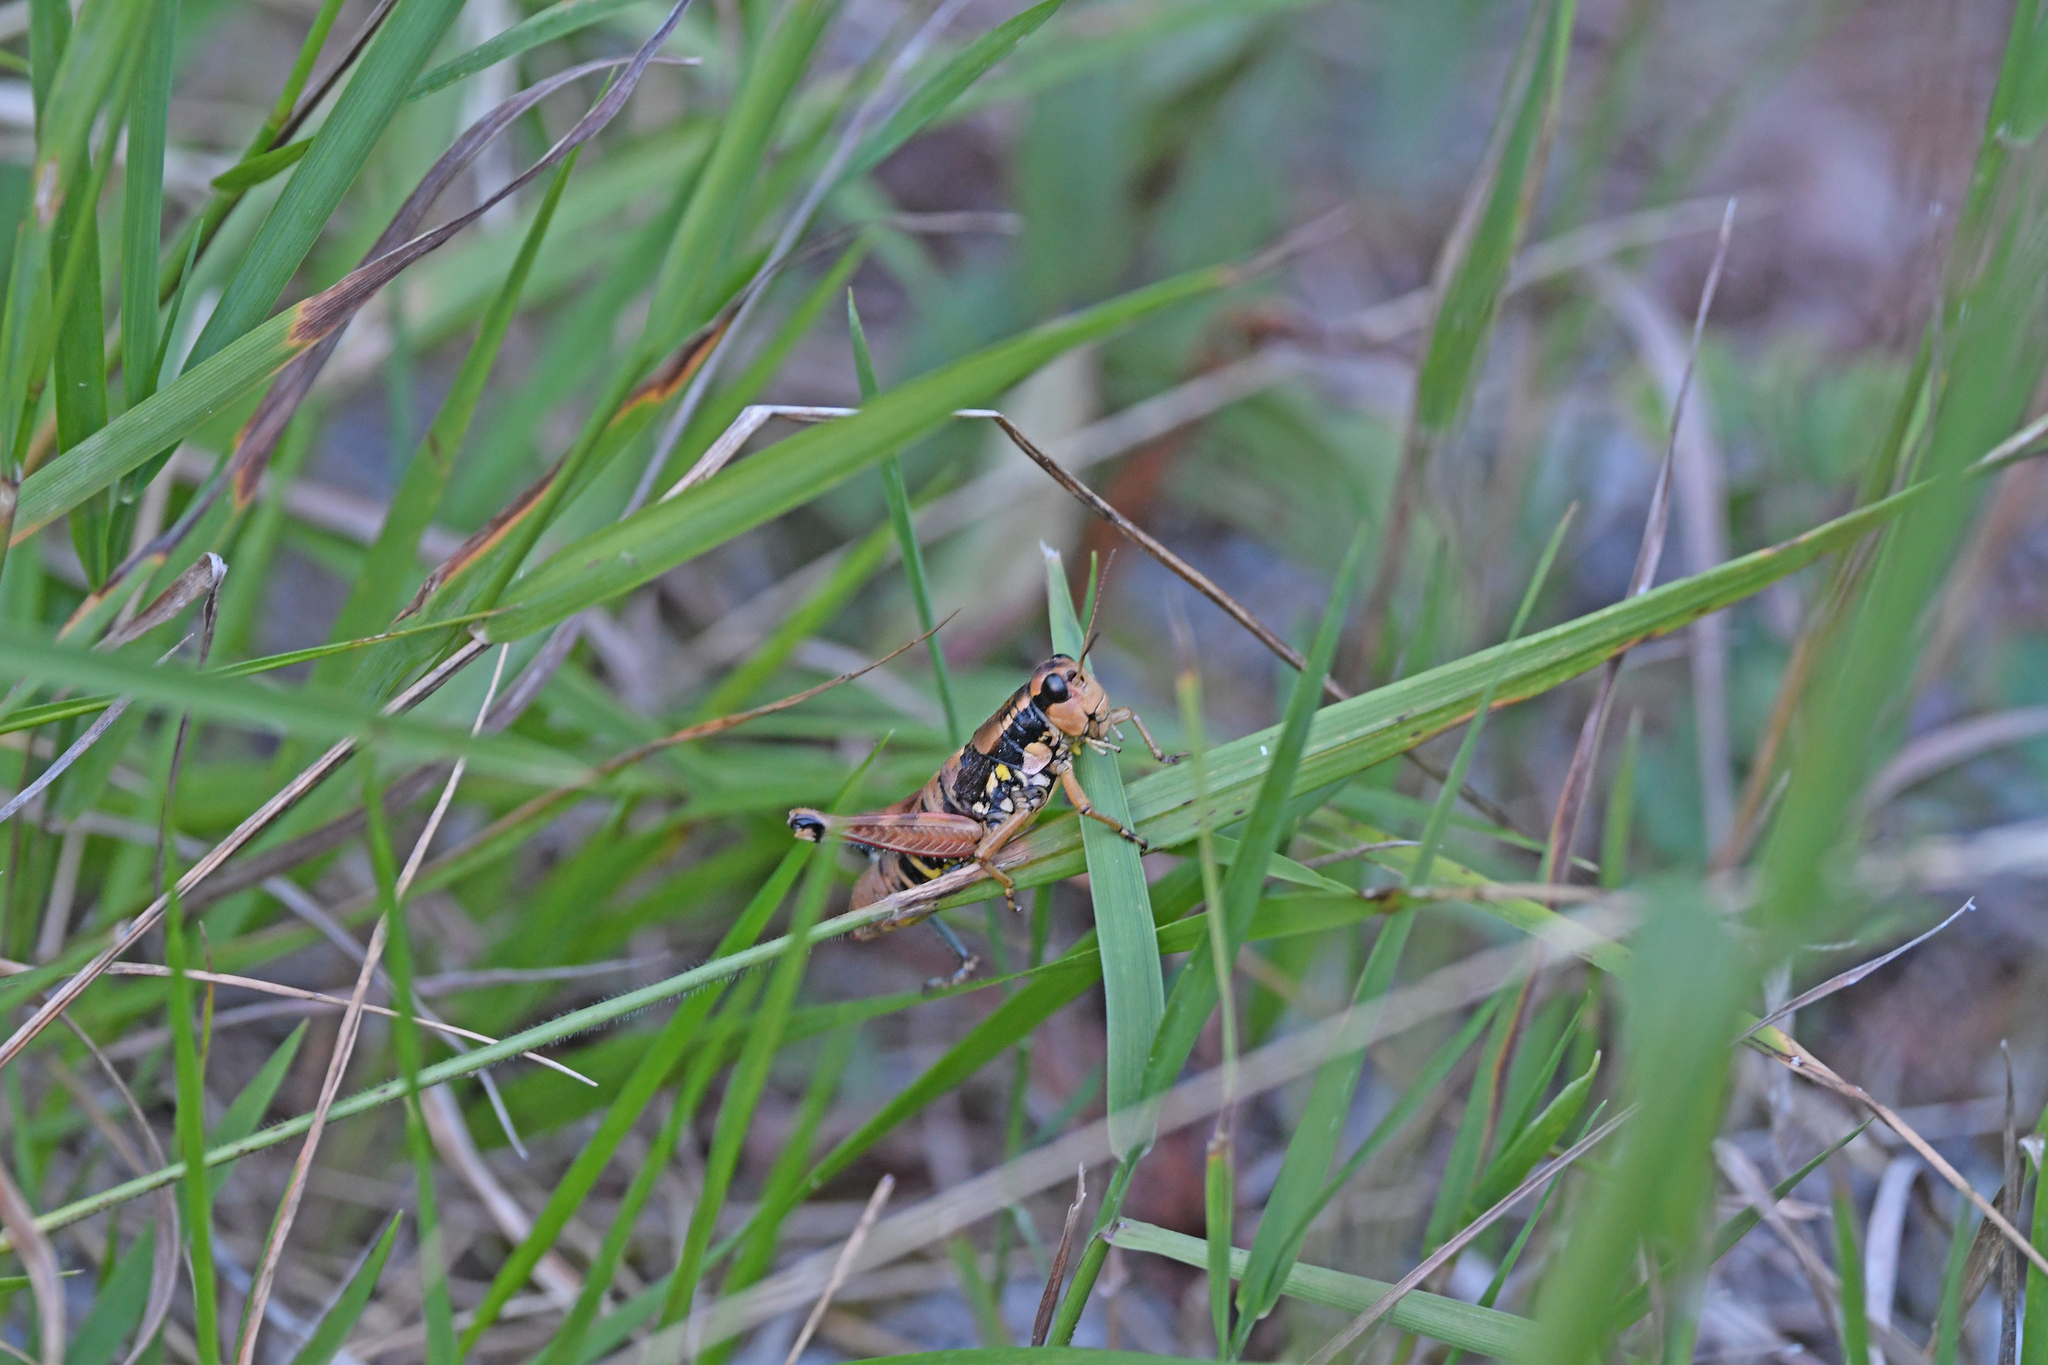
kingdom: Animalia
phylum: Arthropoda
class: Insecta
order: Orthoptera
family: Acrididae
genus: Podisma
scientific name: Podisma pedestris
